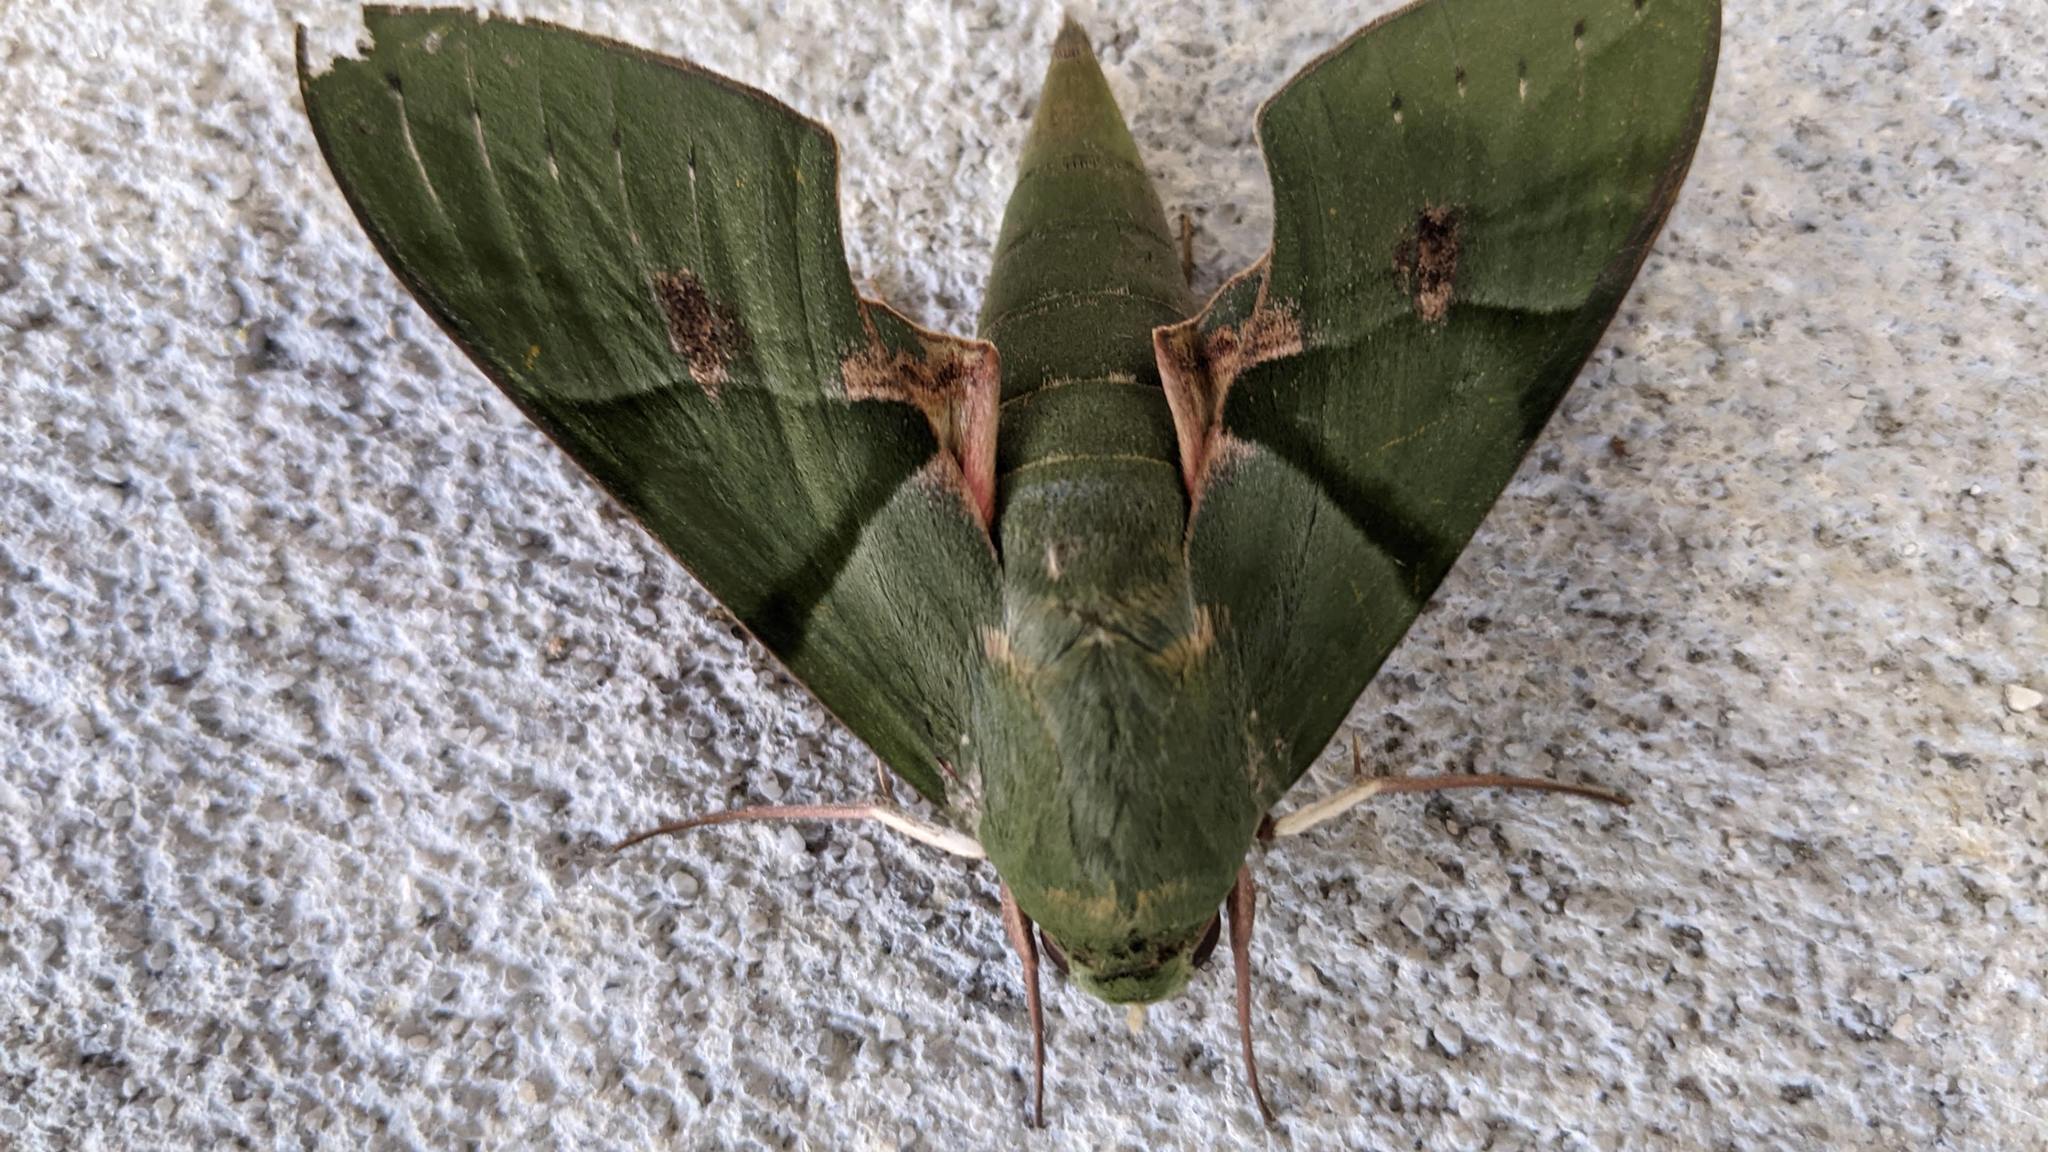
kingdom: Animalia
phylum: Arthropoda
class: Insecta
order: Lepidoptera
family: Sphingidae
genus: Eumorpha
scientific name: Eumorpha labruscae
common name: Gaudy sphinx
